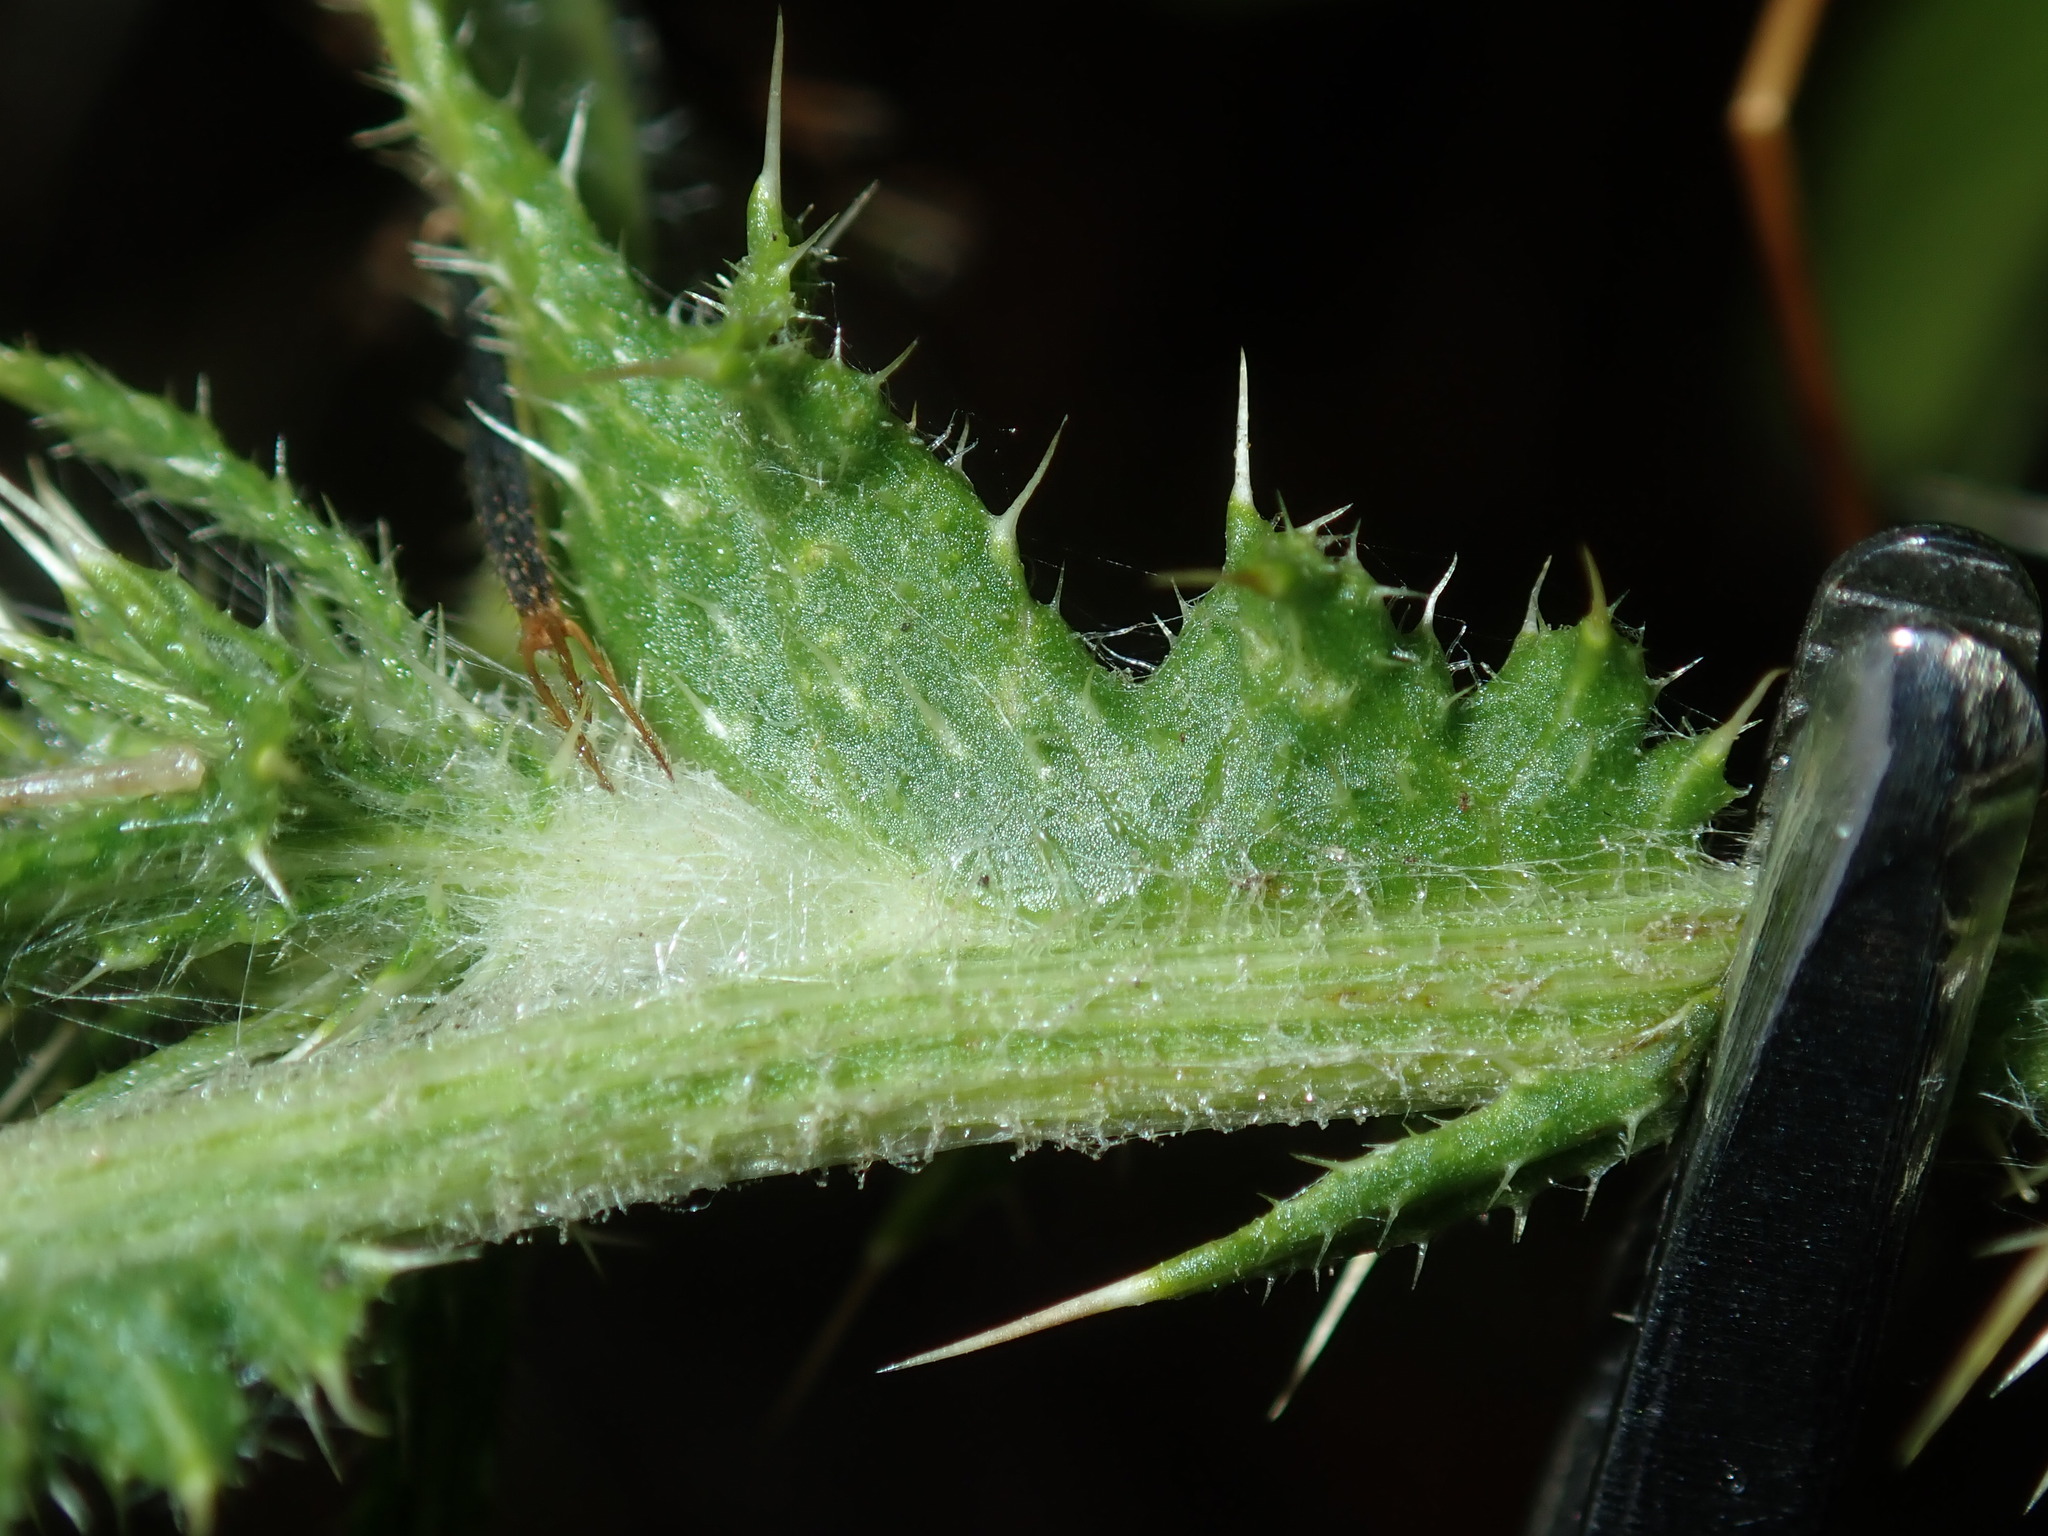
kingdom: Plantae
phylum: Tracheophyta
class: Magnoliopsida
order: Asterales
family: Asteraceae
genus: Cirsium
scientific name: Cirsium vulgare
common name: Bull thistle
